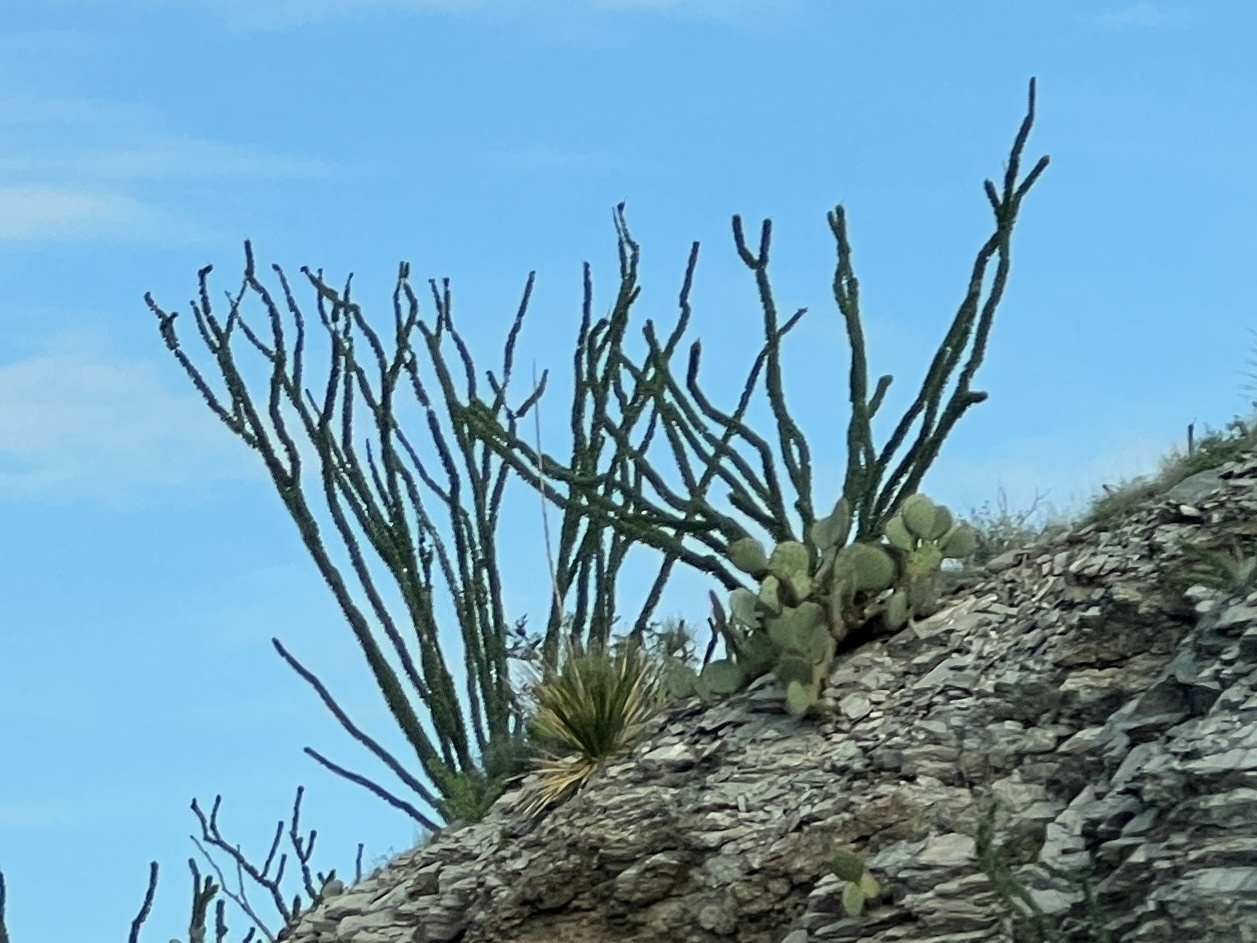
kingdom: Plantae
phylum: Tracheophyta
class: Magnoliopsida
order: Ericales
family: Fouquieriaceae
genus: Fouquieria
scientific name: Fouquieria splendens
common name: Vine-cactus
